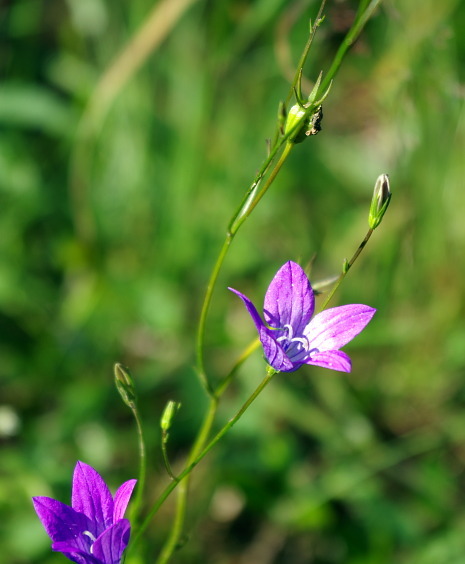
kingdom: Plantae
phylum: Tracheophyta
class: Magnoliopsida
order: Asterales
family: Campanulaceae
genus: Campanula
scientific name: Campanula patula
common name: Spreading bellflower
